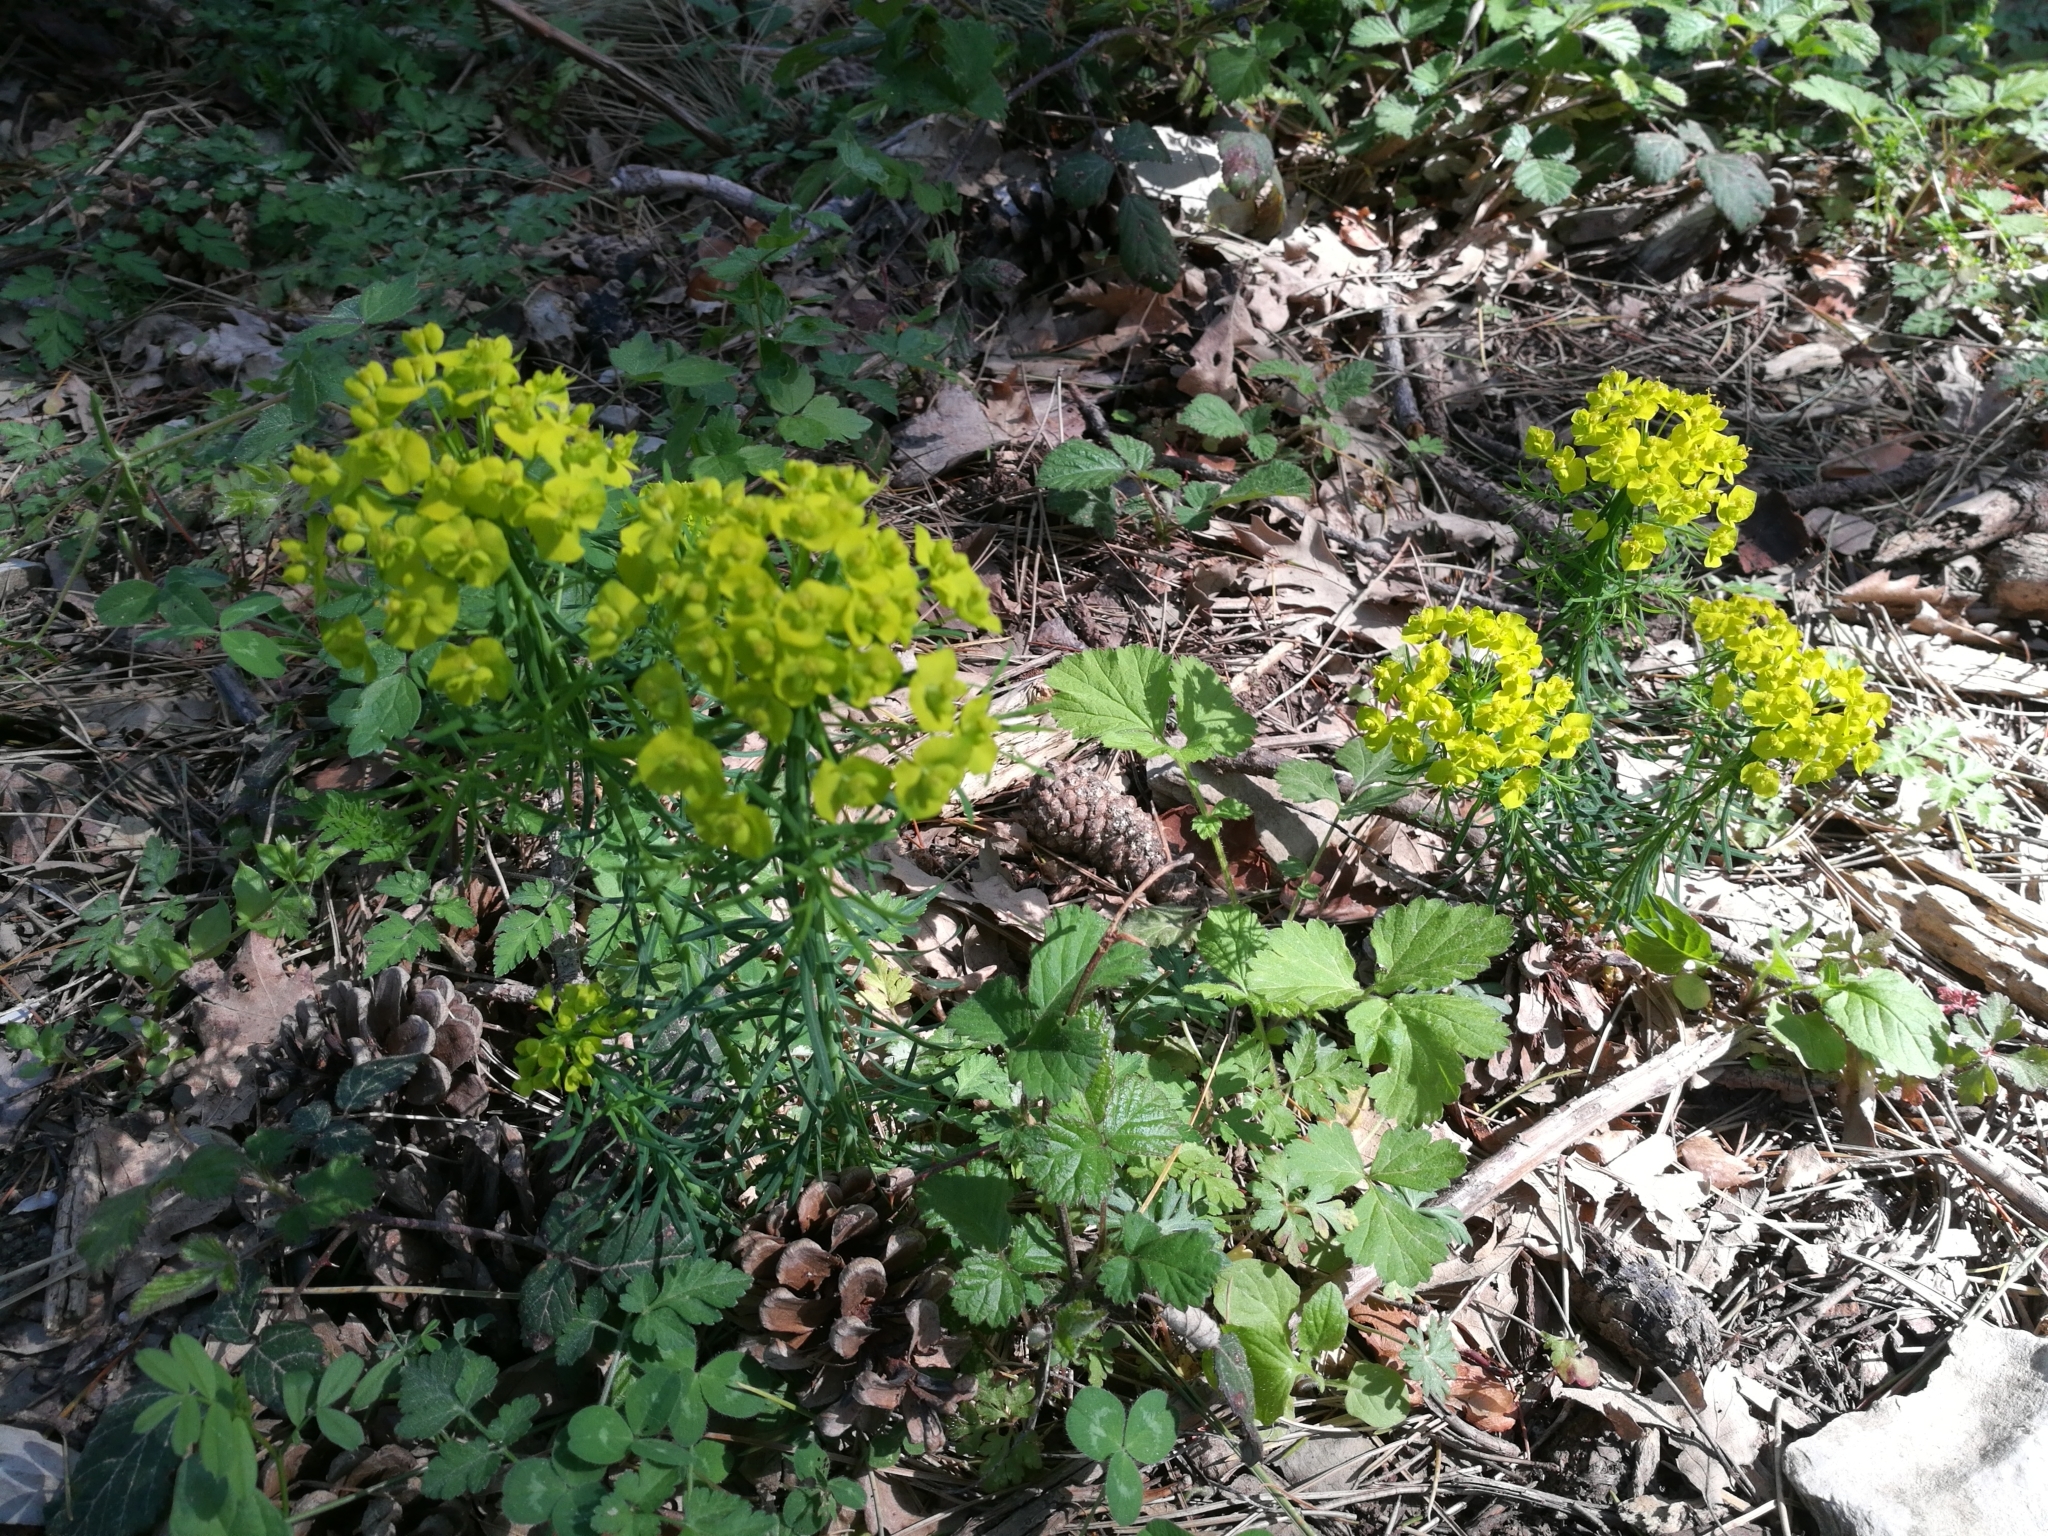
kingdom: Plantae
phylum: Tracheophyta
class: Magnoliopsida
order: Malpighiales
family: Euphorbiaceae
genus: Euphorbia
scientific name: Euphorbia cyparissias
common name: Cypress spurge
